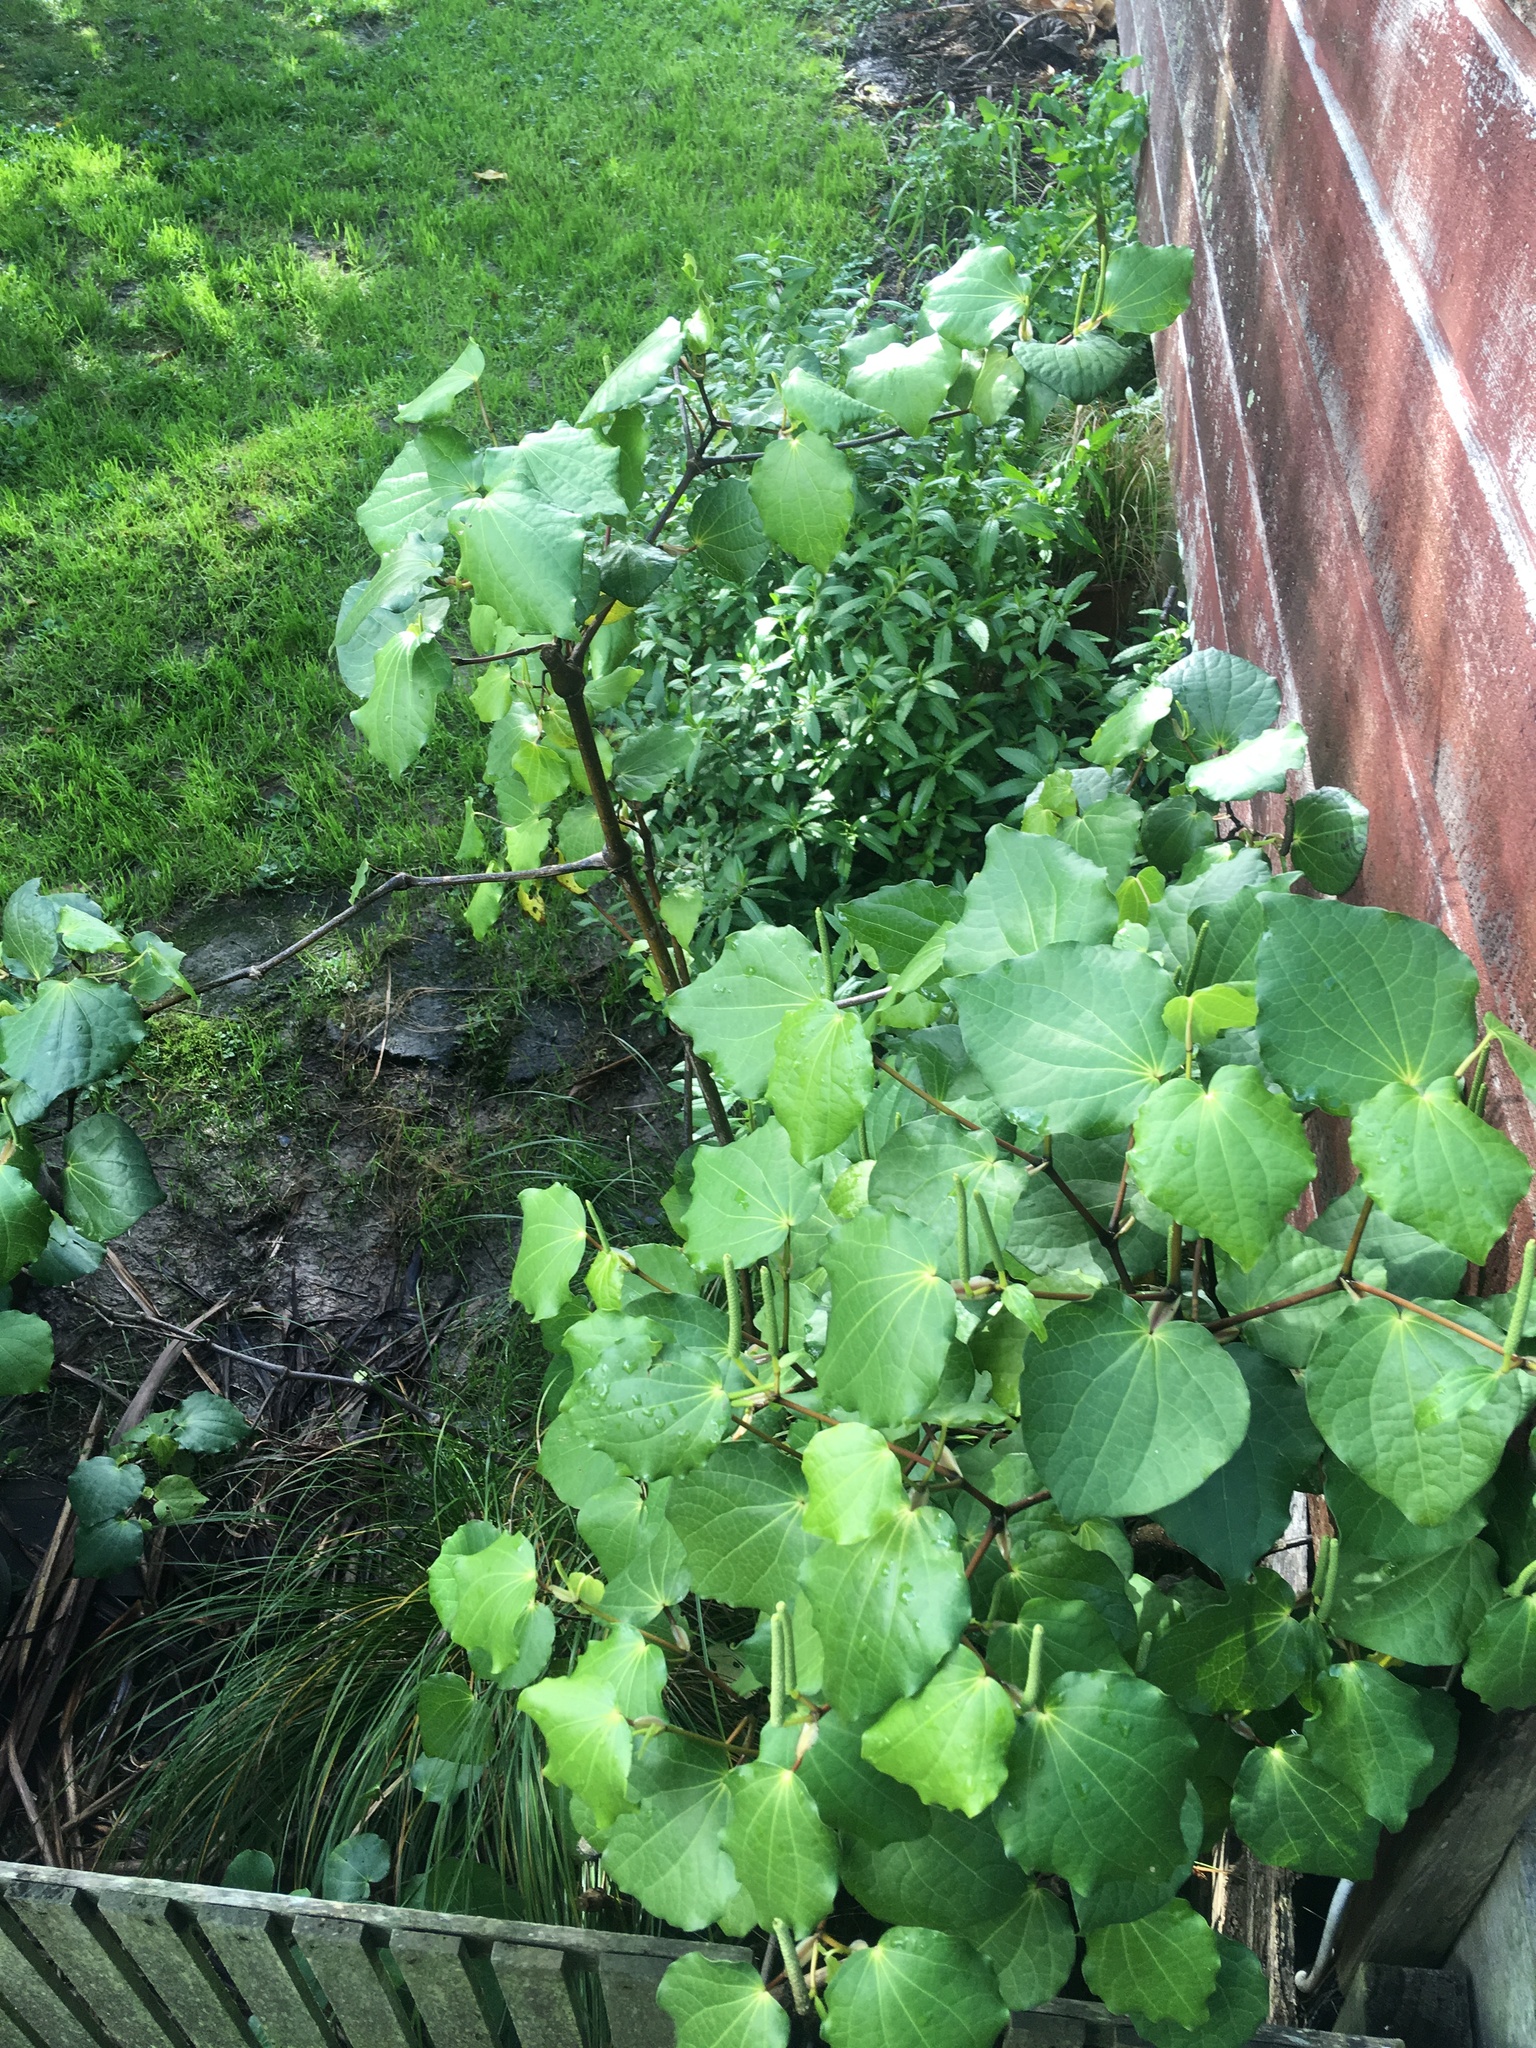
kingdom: Plantae
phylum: Tracheophyta
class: Magnoliopsida
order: Piperales
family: Piperaceae
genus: Macropiper
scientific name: Macropiper excelsum
